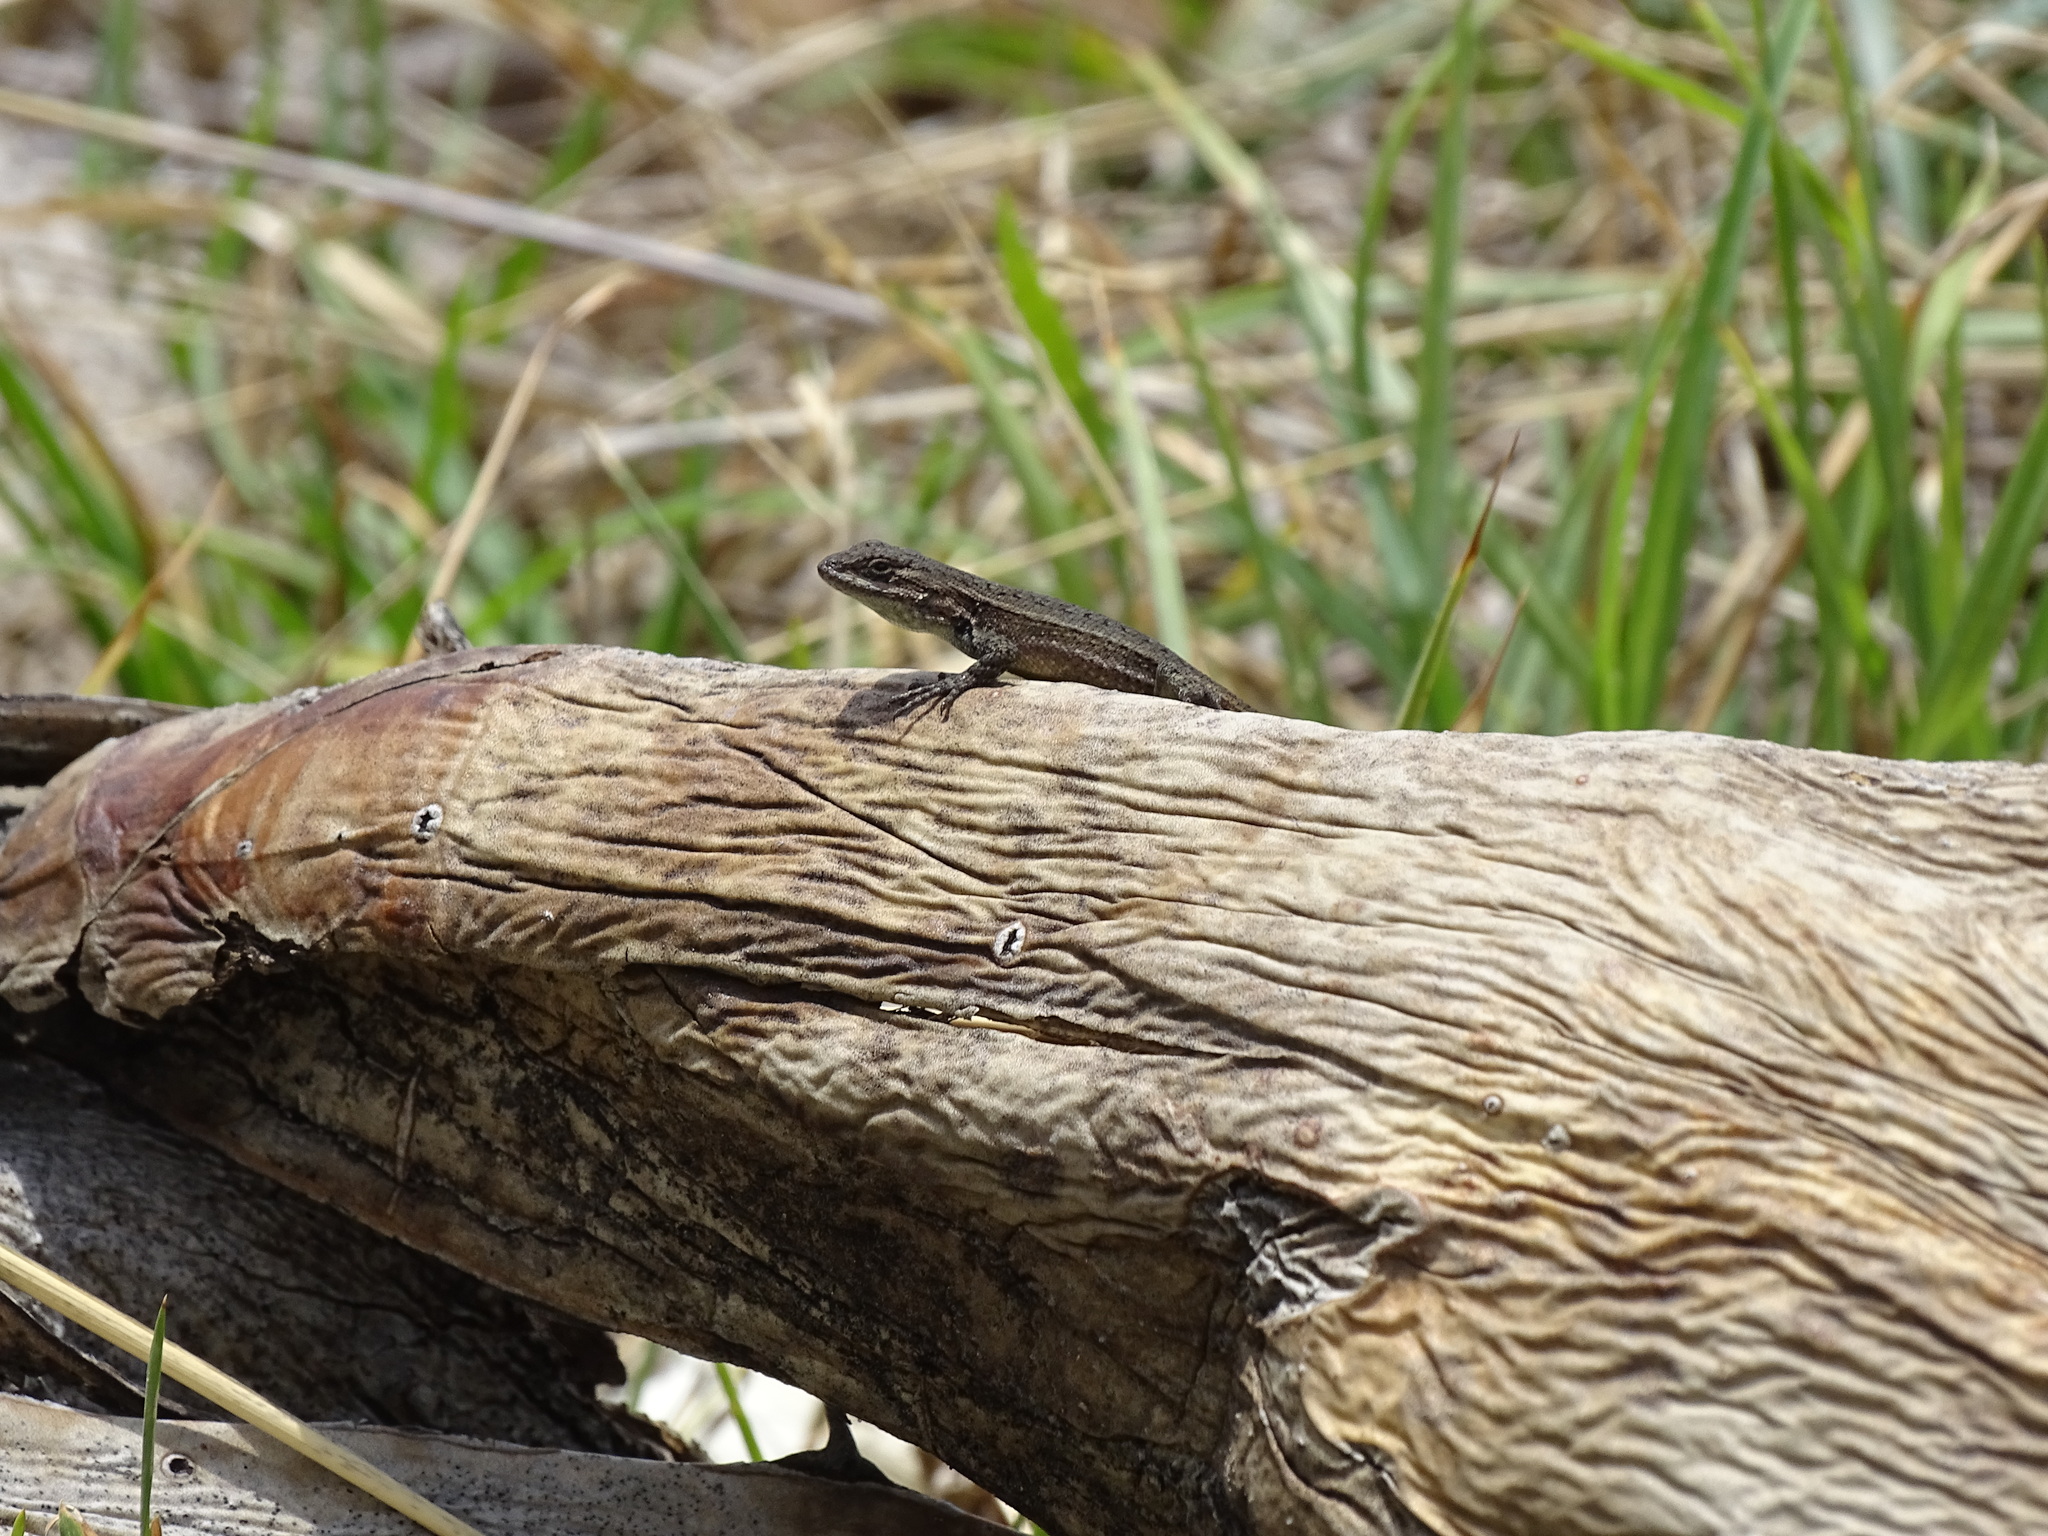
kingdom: Animalia
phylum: Chordata
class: Squamata
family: Phrynosomatidae
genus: Sceloporus
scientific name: Sceloporus megalepidurus
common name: Cursorial spiny lizard
